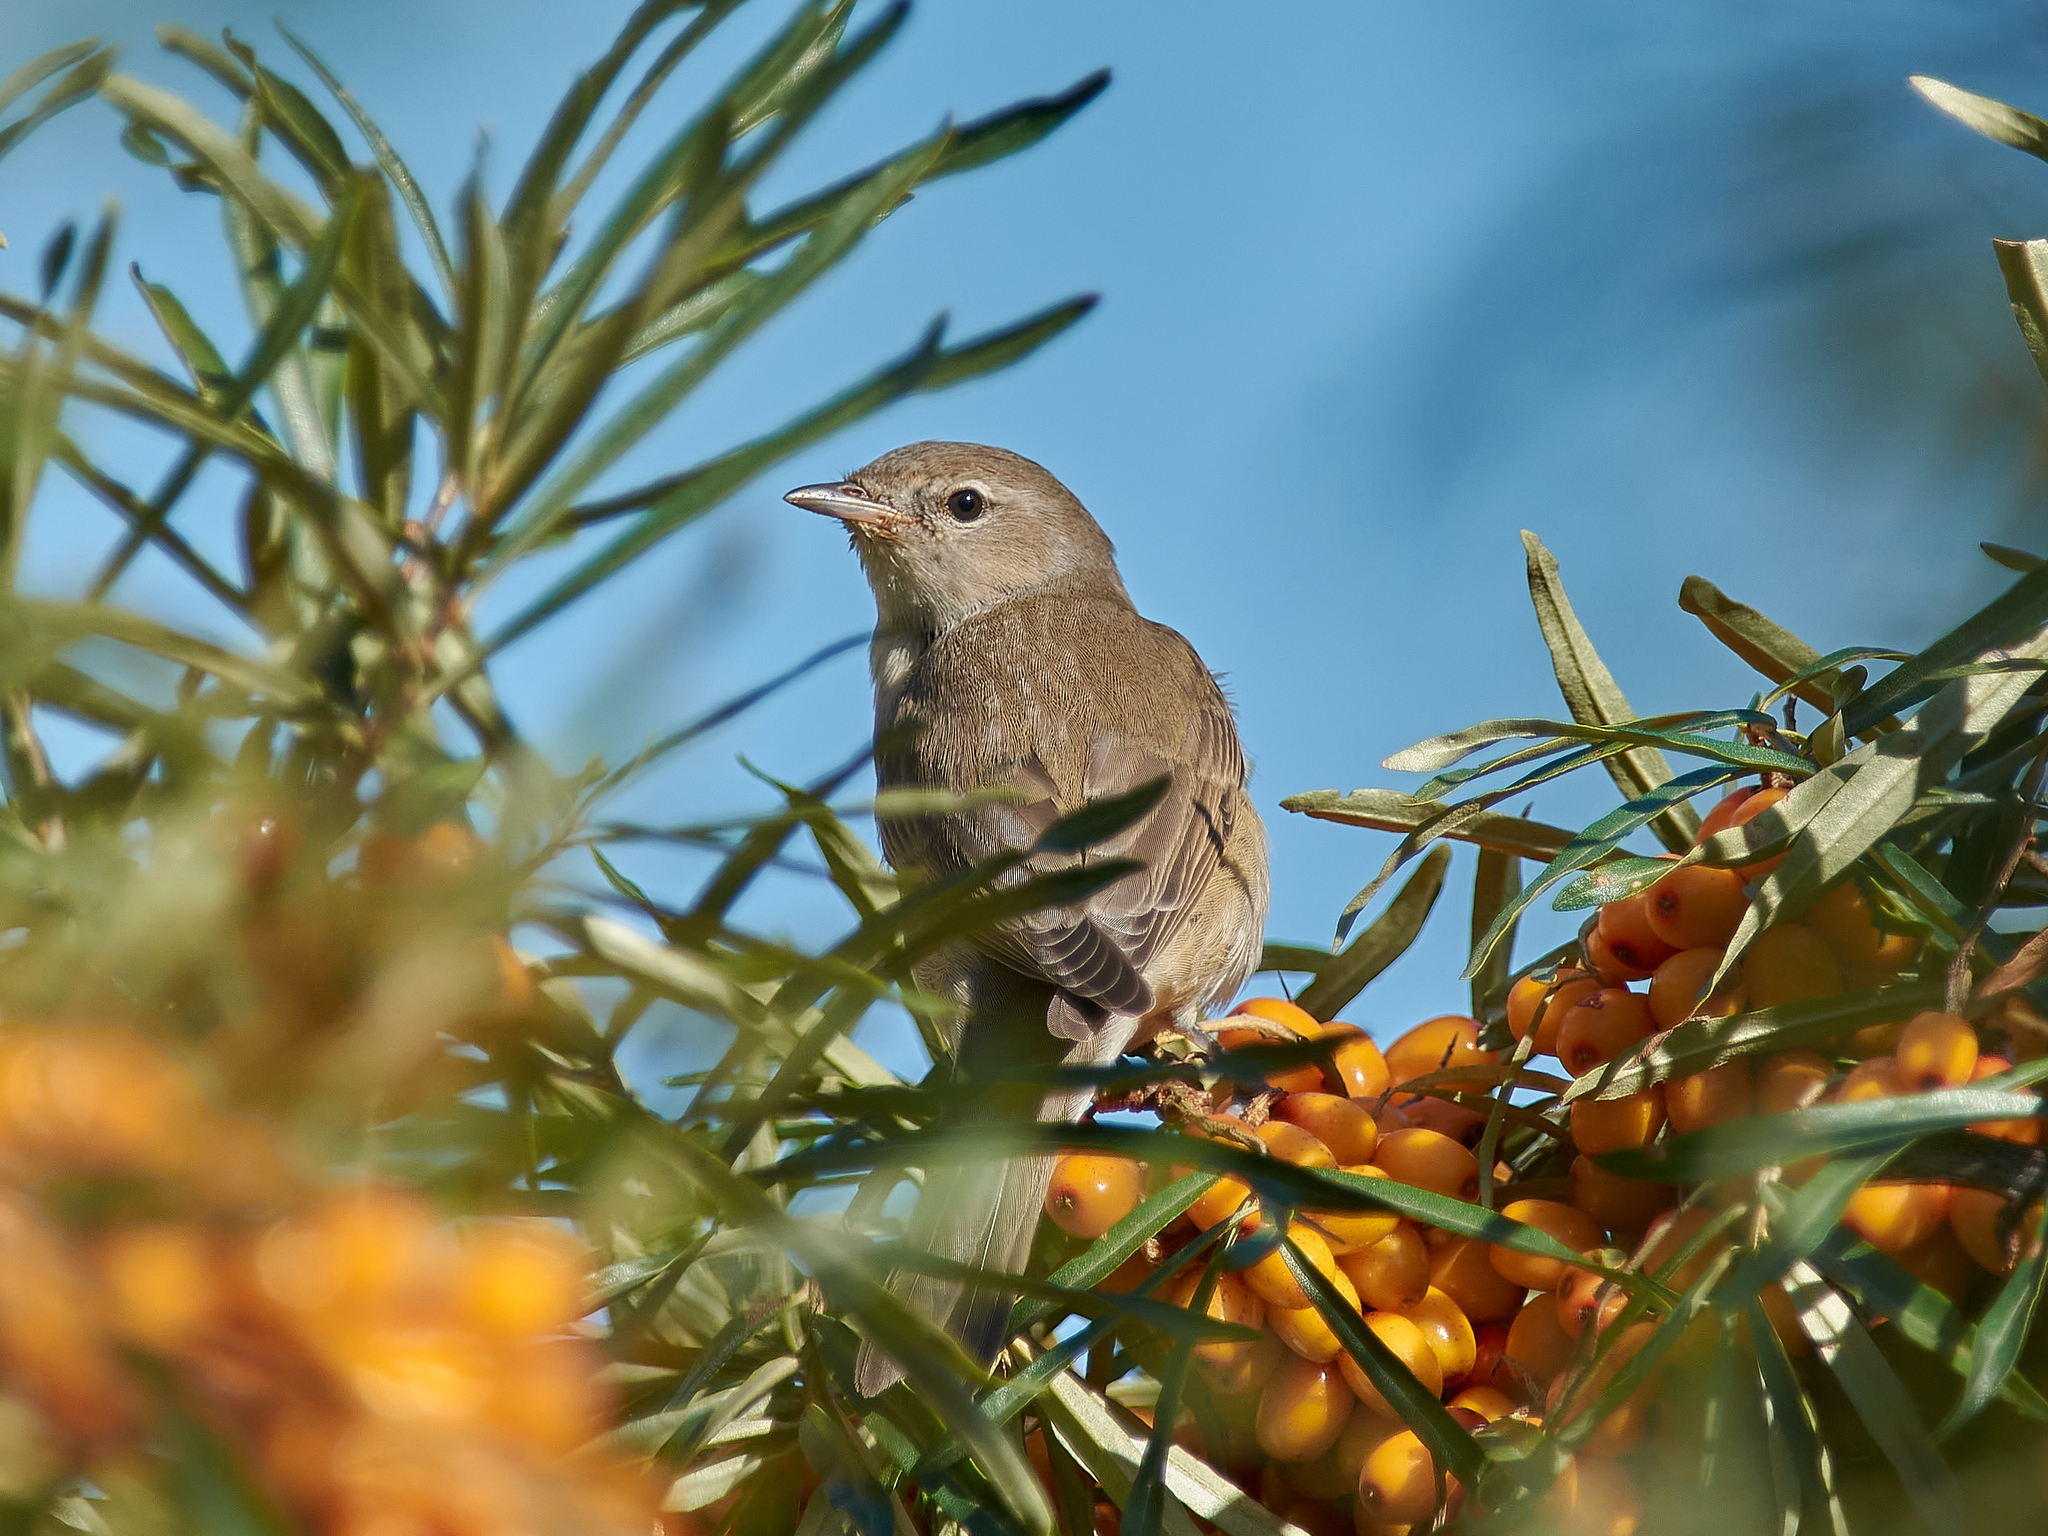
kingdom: Animalia
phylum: Chordata
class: Aves
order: Passeriformes
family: Sylviidae
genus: Sylvia
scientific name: Sylvia borin
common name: Garden warbler
